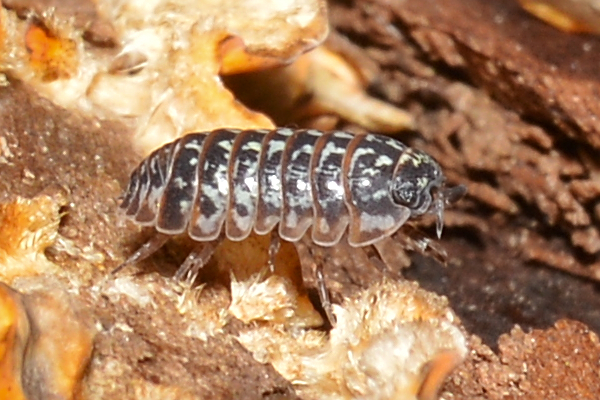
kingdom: Animalia
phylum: Arthropoda
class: Malacostraca
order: Isopoda
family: Armadillidiidae
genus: Armadillidium
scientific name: Armadillidium pictum
